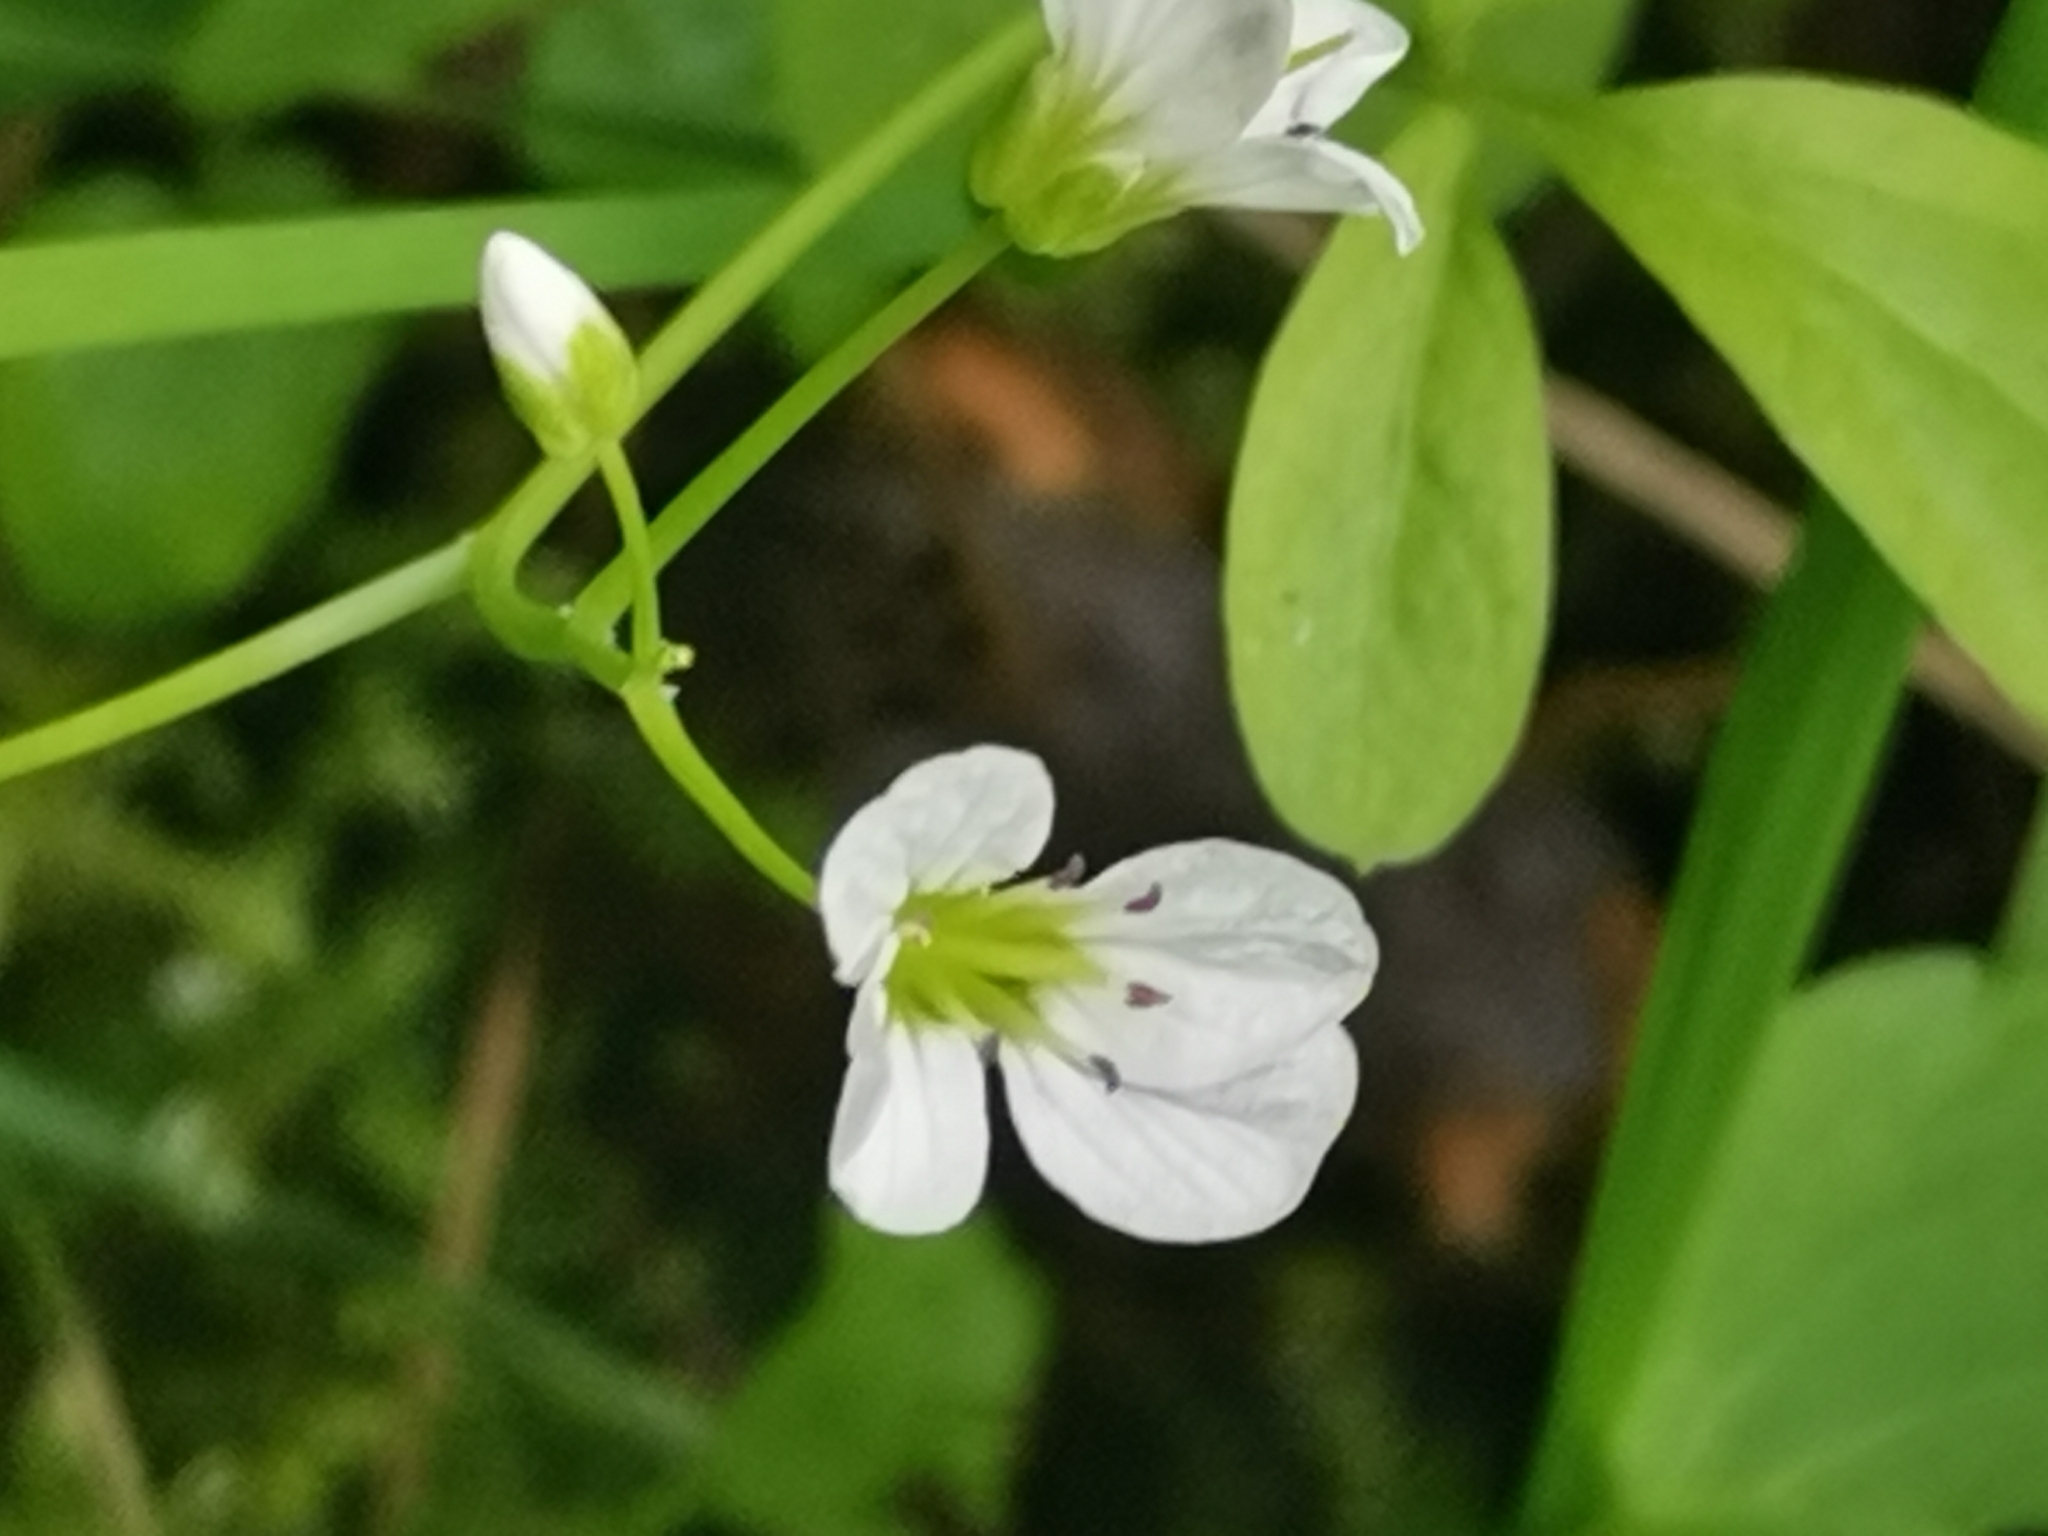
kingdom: Plantae
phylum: Tracheophyta
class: Magnoliopsida
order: Brassicales
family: Brassicaceae
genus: Cardamine
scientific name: Cardamine amara
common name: Large bitter-cress
